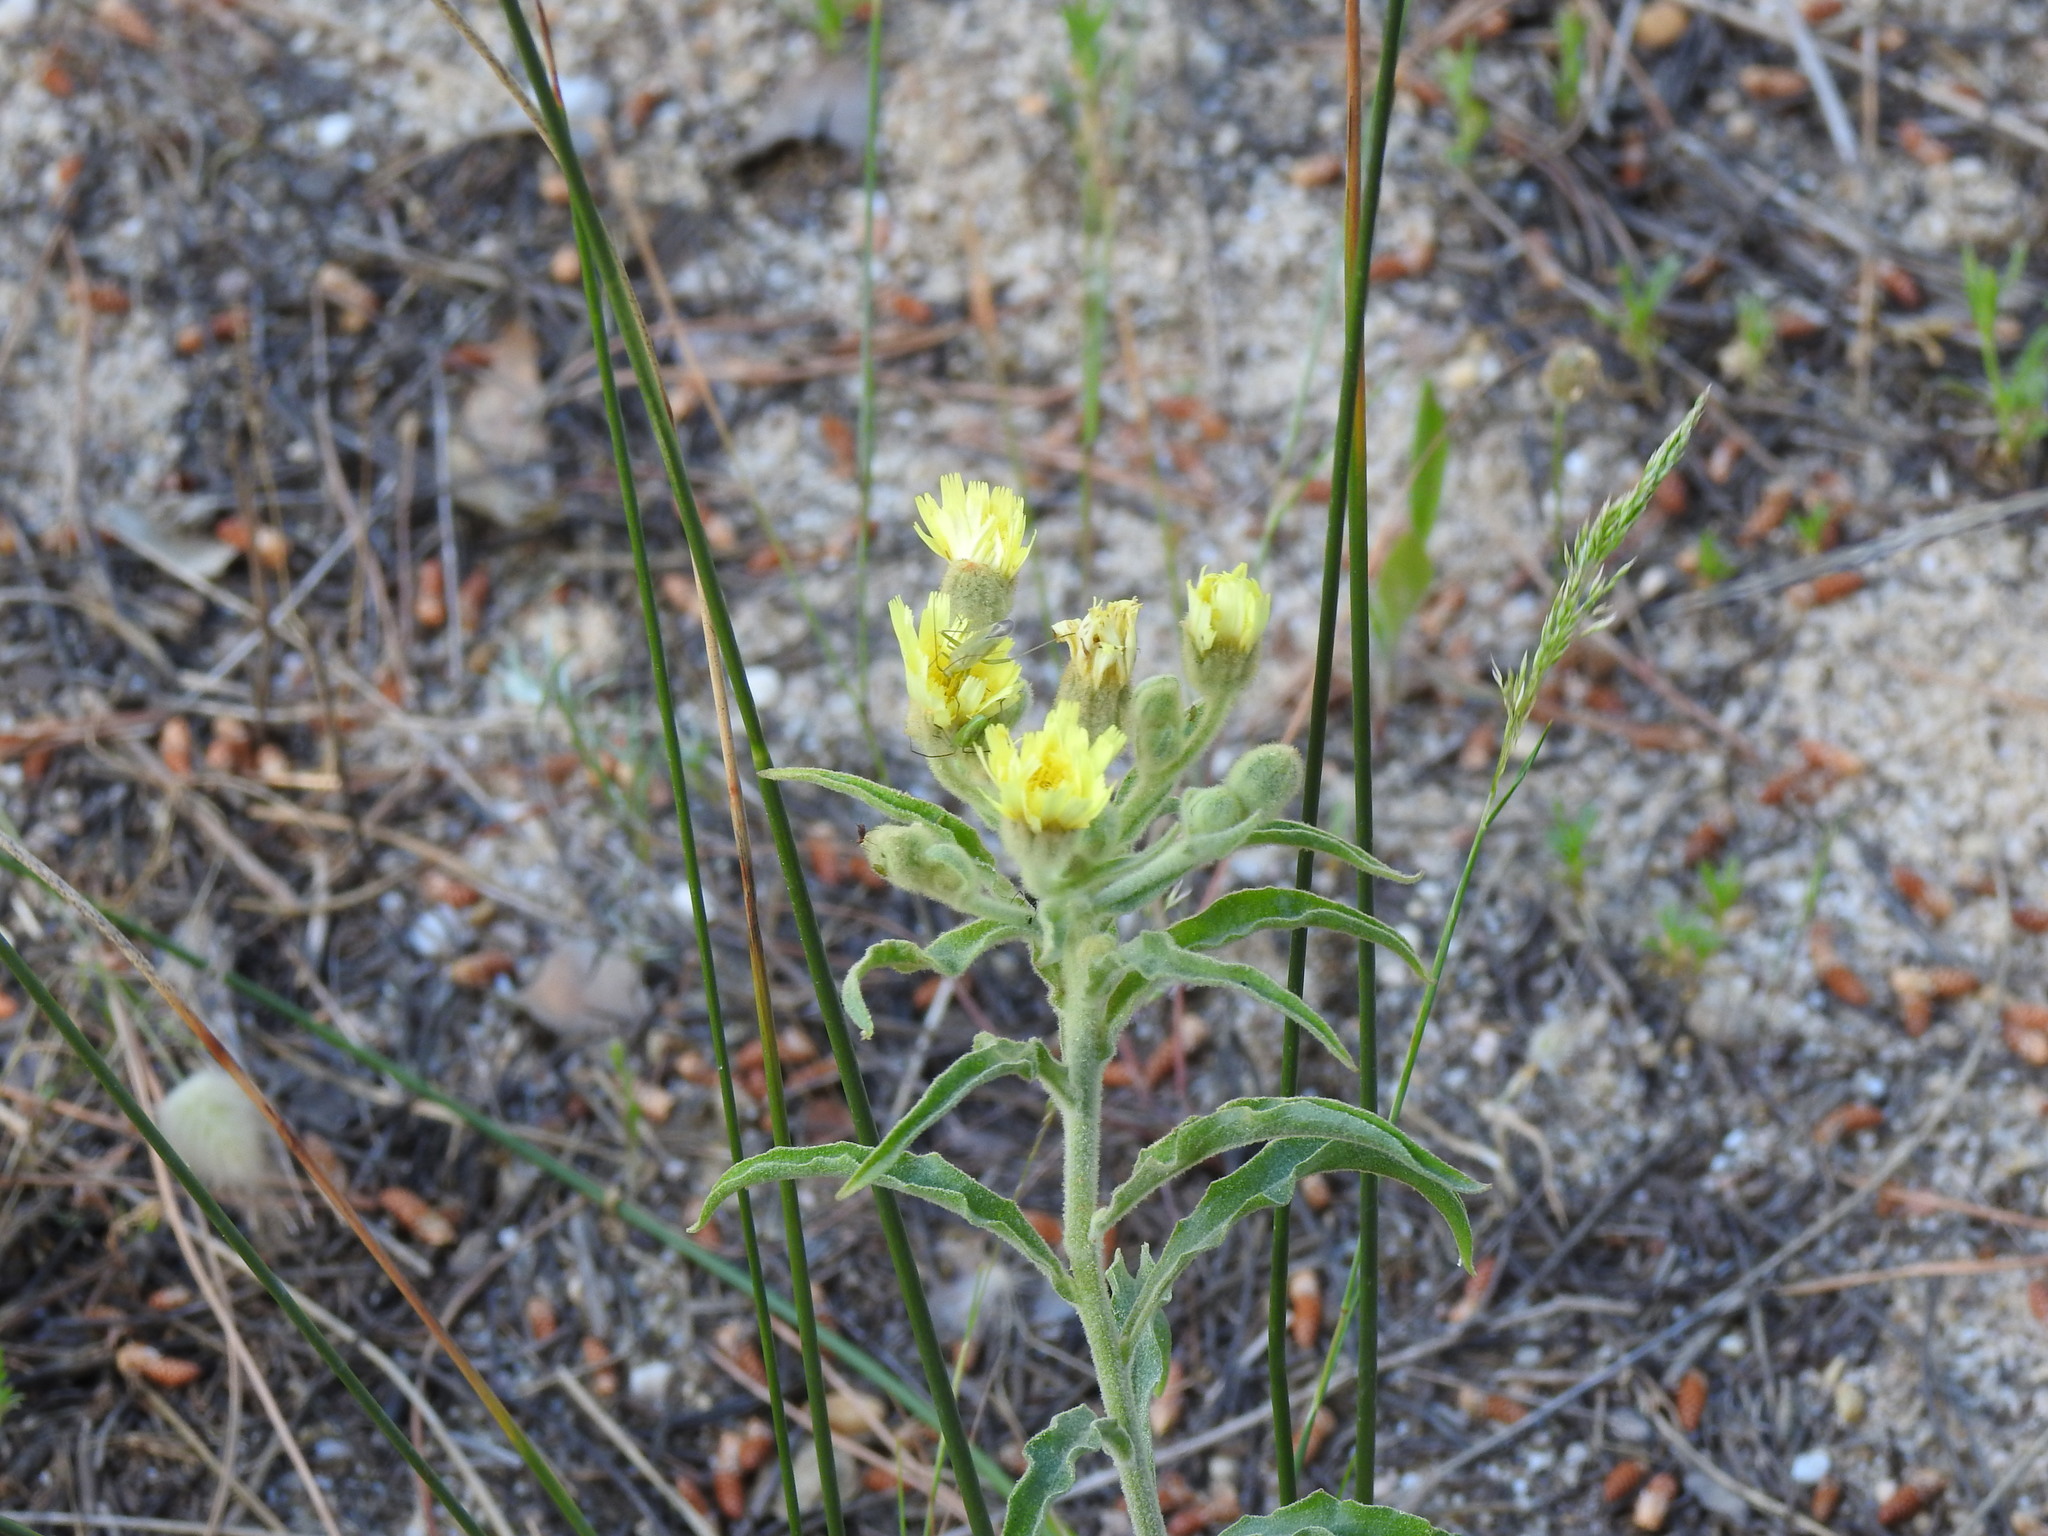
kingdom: Plantae
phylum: Tracheophyta
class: Magnoliopsida
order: Asterales
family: Asteraceae
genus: Andryala
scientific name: Andryala integrifolia
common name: Common andryala
